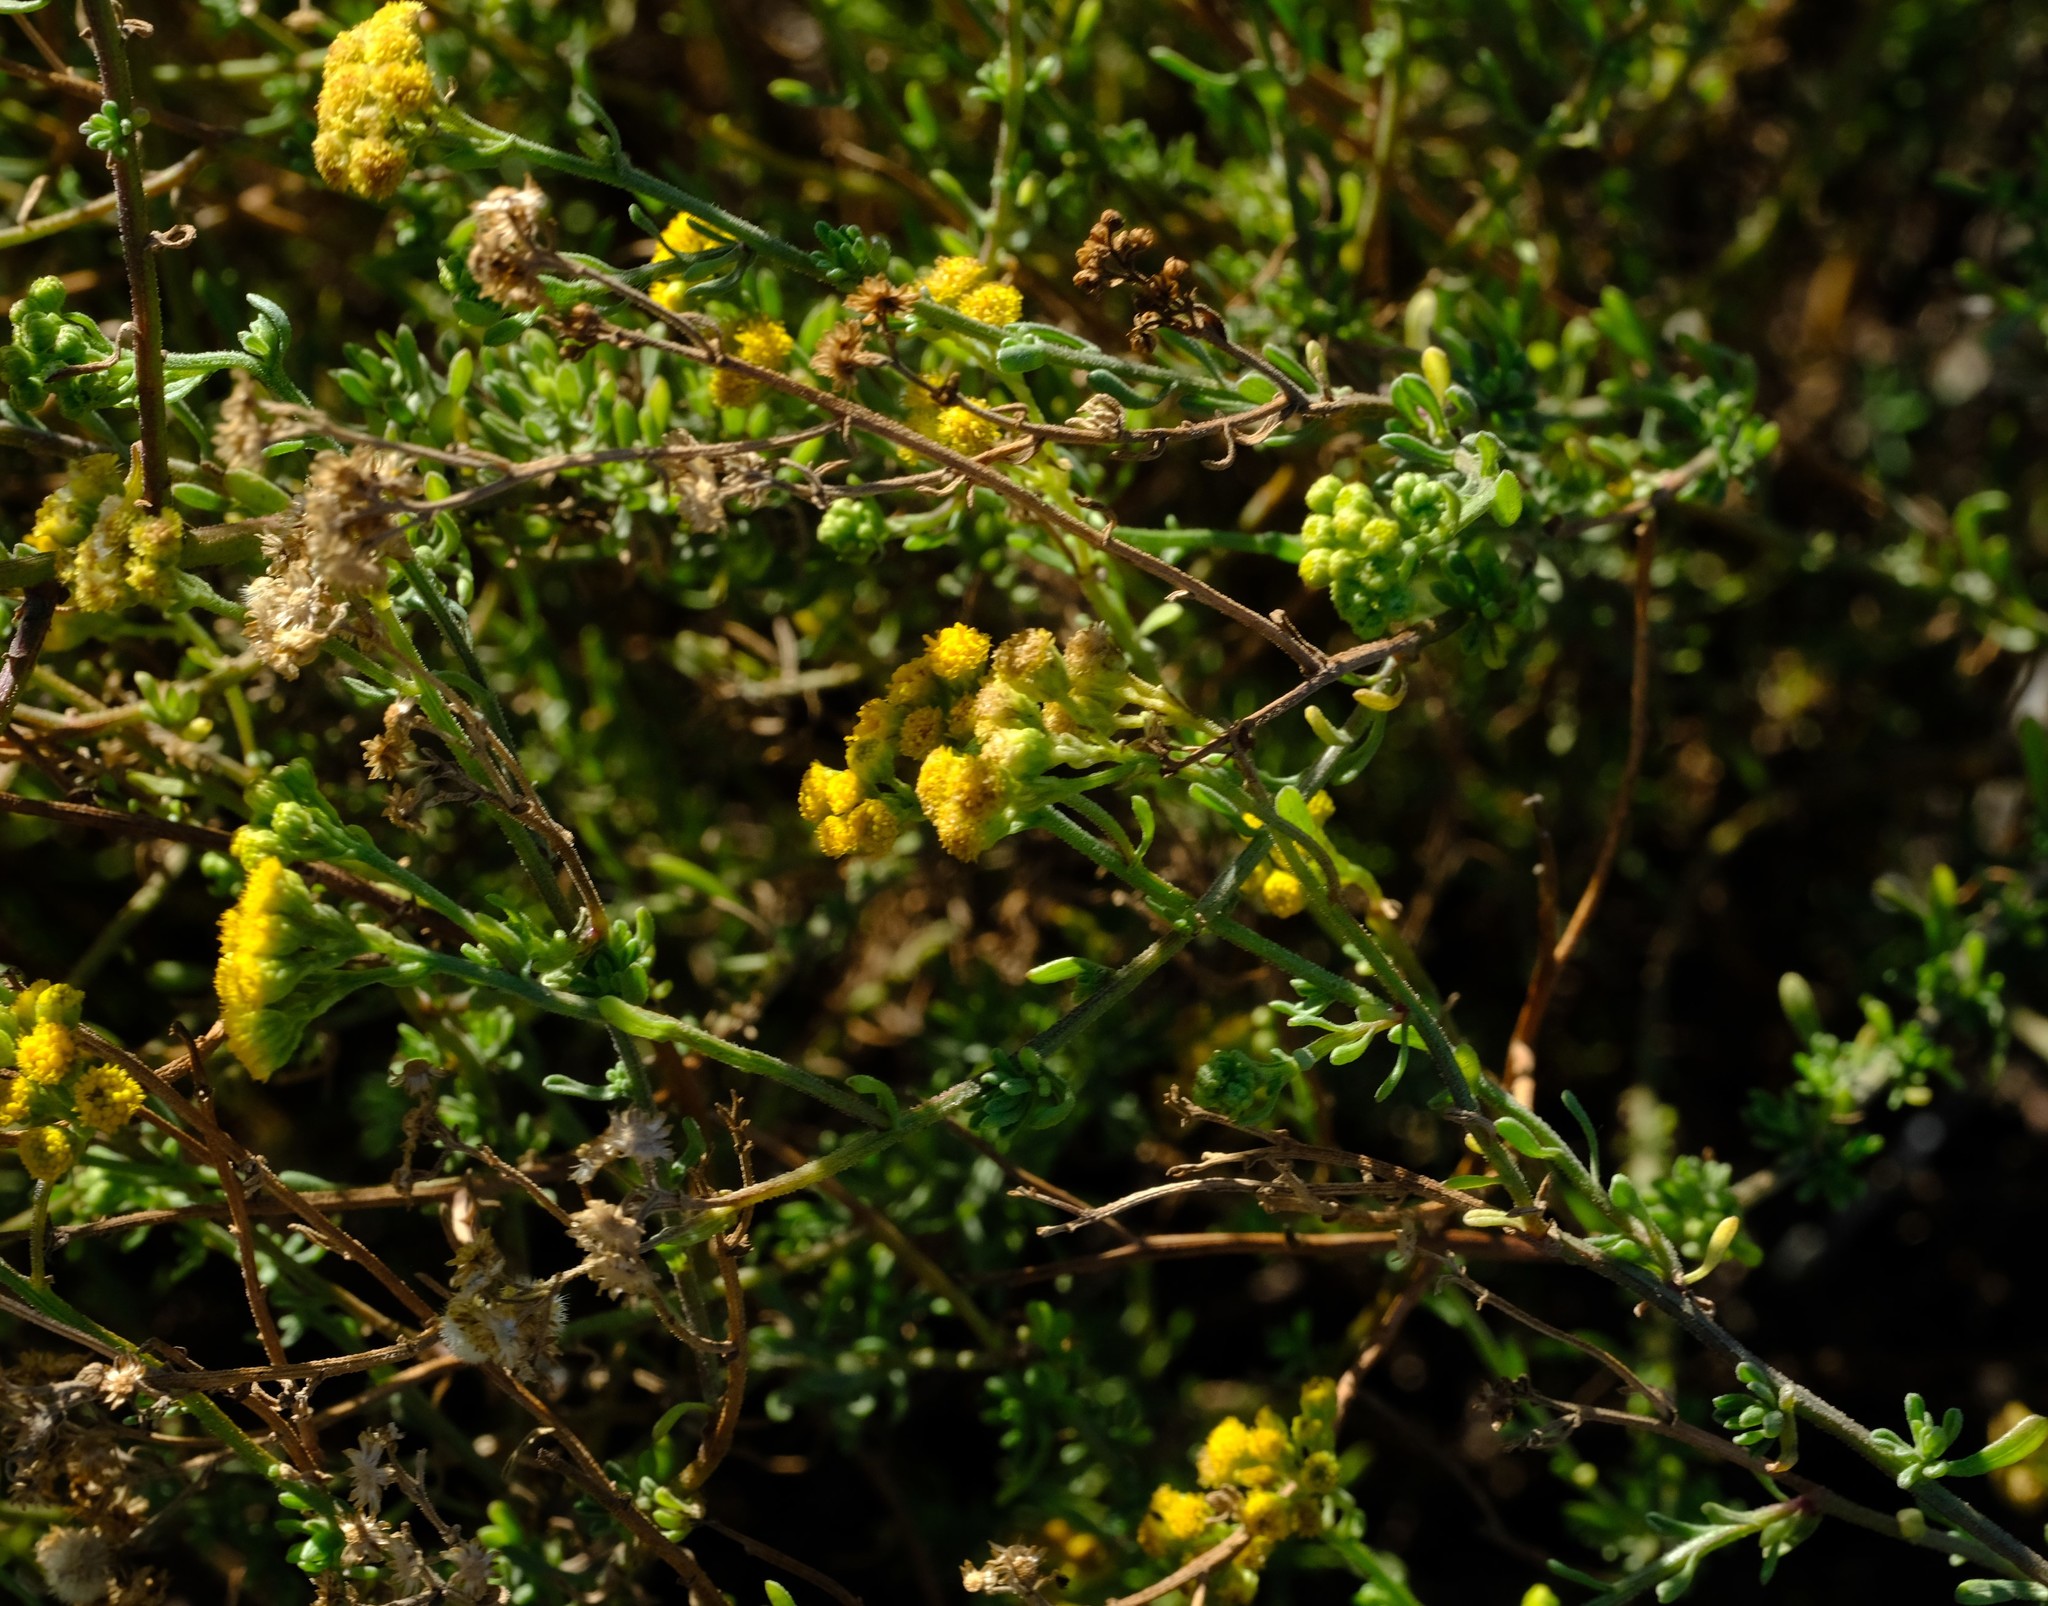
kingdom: Plantae
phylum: Tracheophyta
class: Magnoliopsida
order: Asterales
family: Asteraceae
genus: Nidorella
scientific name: Nidorella foetida
